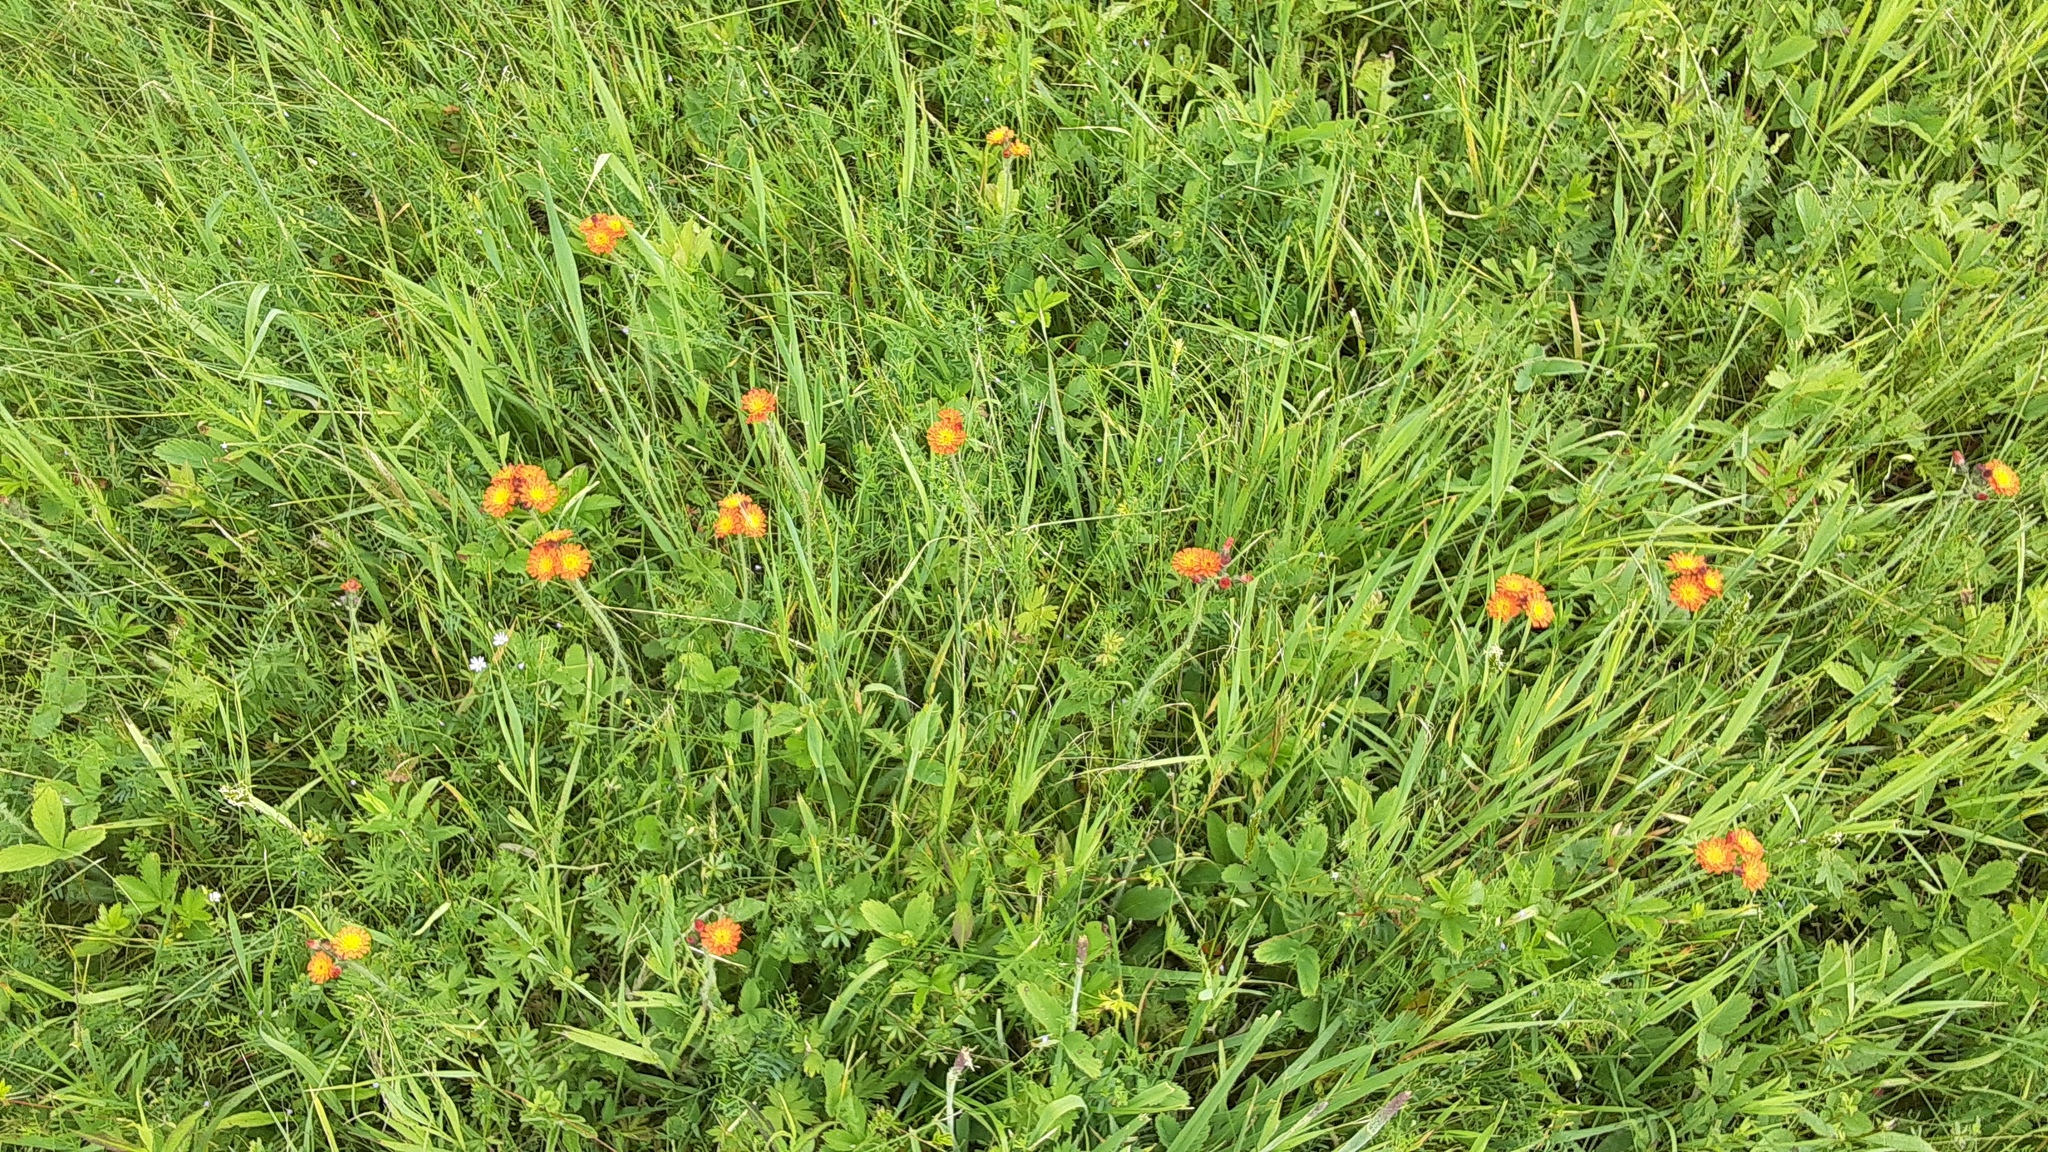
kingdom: Plantae
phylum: Tracheophyta
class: Magnoliopsida
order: Asterales
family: Asteraceae
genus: Pilosella
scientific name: Pilosella aurantiaca
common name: Fox-and-cubs
